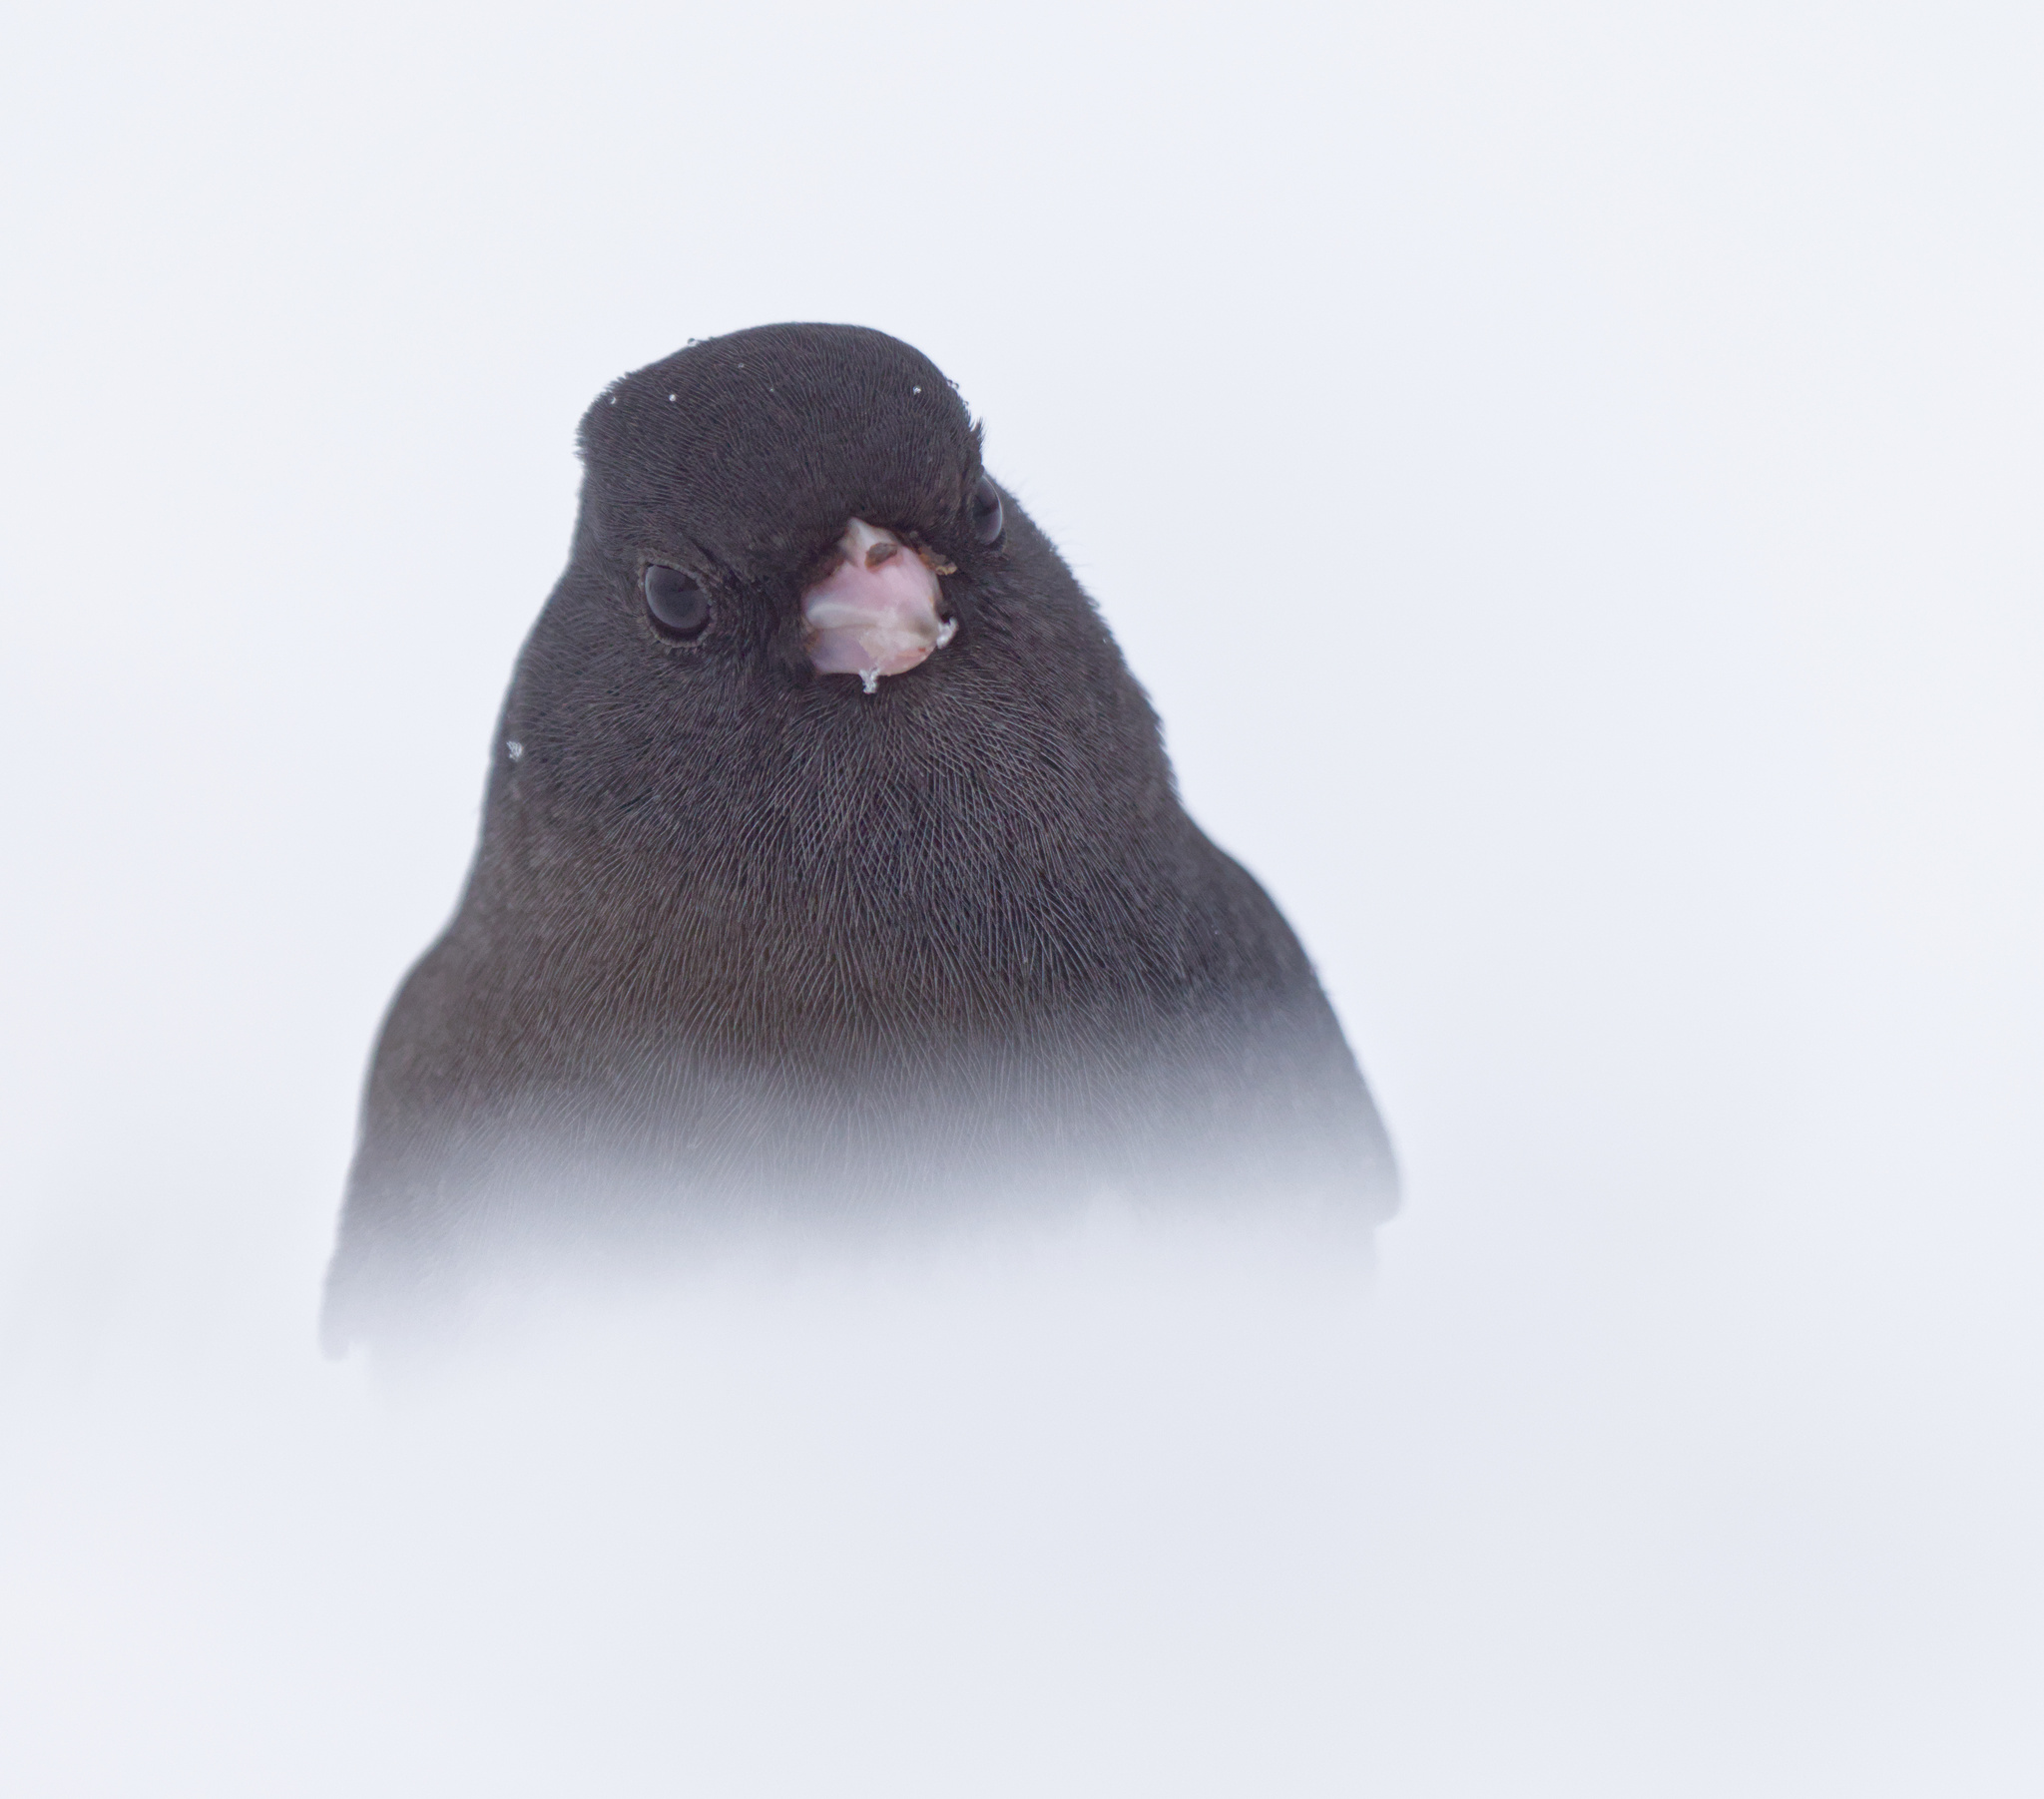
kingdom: Animalia
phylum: Chordata
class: Aves
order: Passeriformes
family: Passerellidae
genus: Junco
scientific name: Junco hyemalis
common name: Dark-eyed junco
